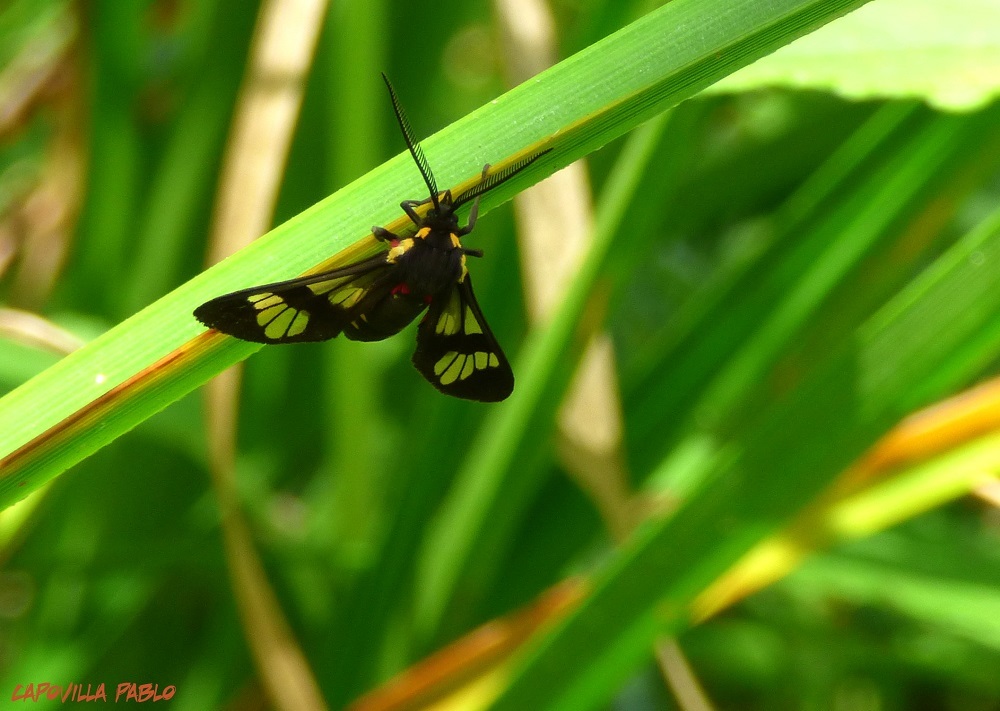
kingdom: Animalia
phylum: Arthropoda
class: Insecta
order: Lepidoptera
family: Erebidae
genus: Eurata
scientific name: Eurata hermione
